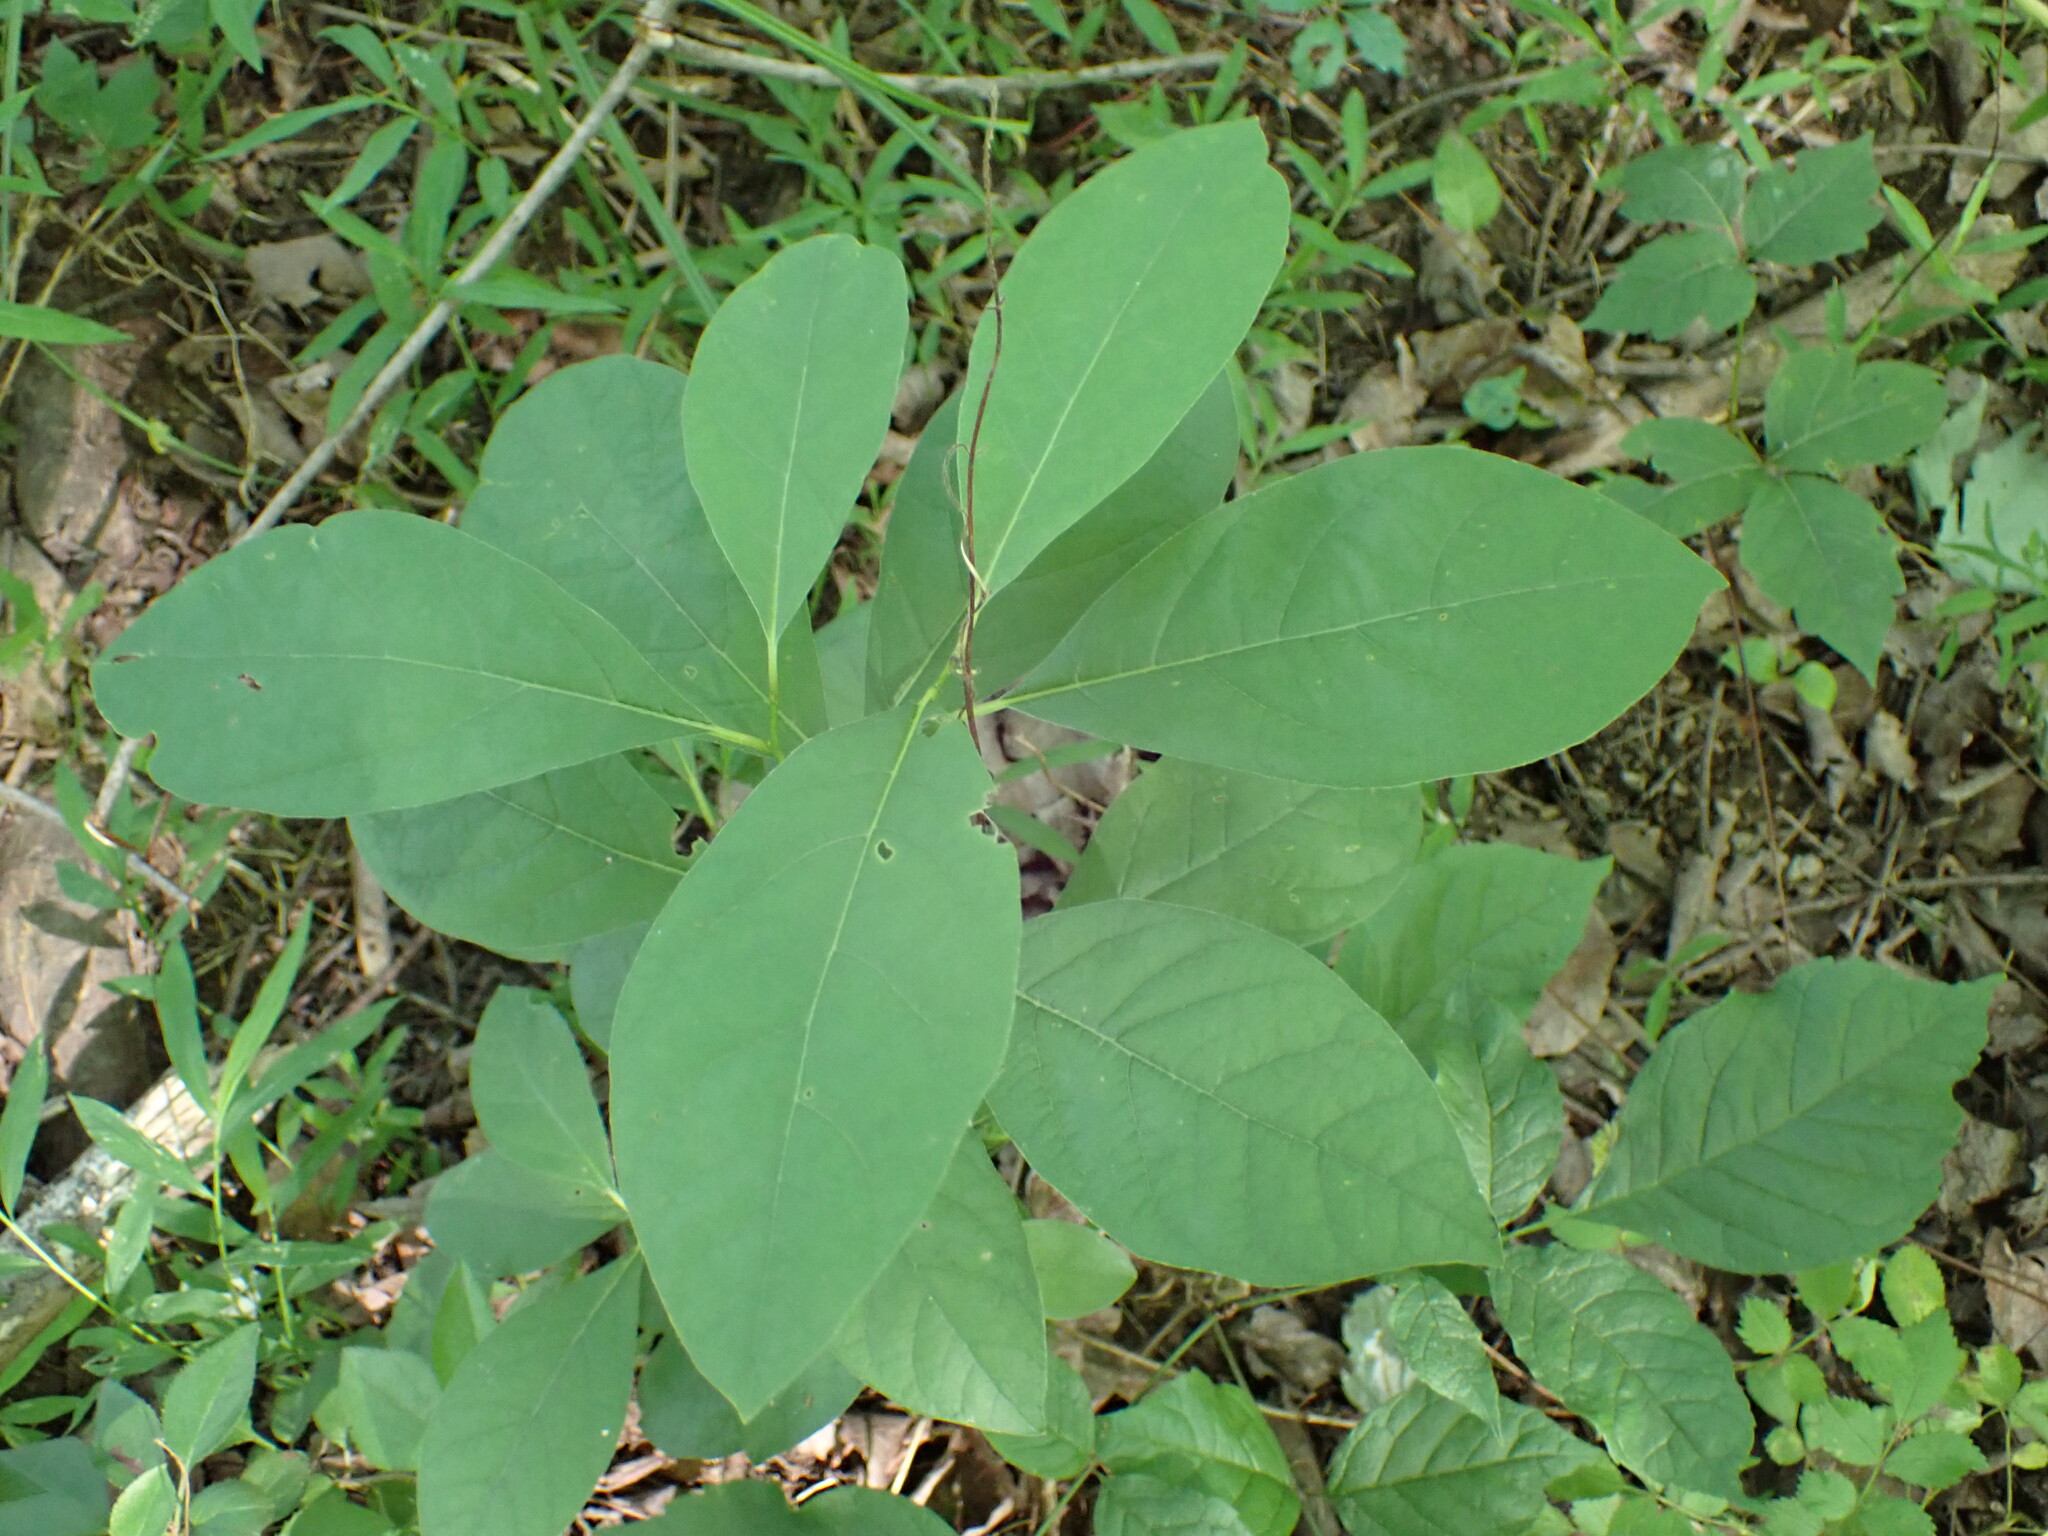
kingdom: Plantae
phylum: Tracheophyta
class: Magnoliopsida
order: Laurales
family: Lauraceae
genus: Lindera
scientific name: Lindera benzoin
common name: Spicebush
